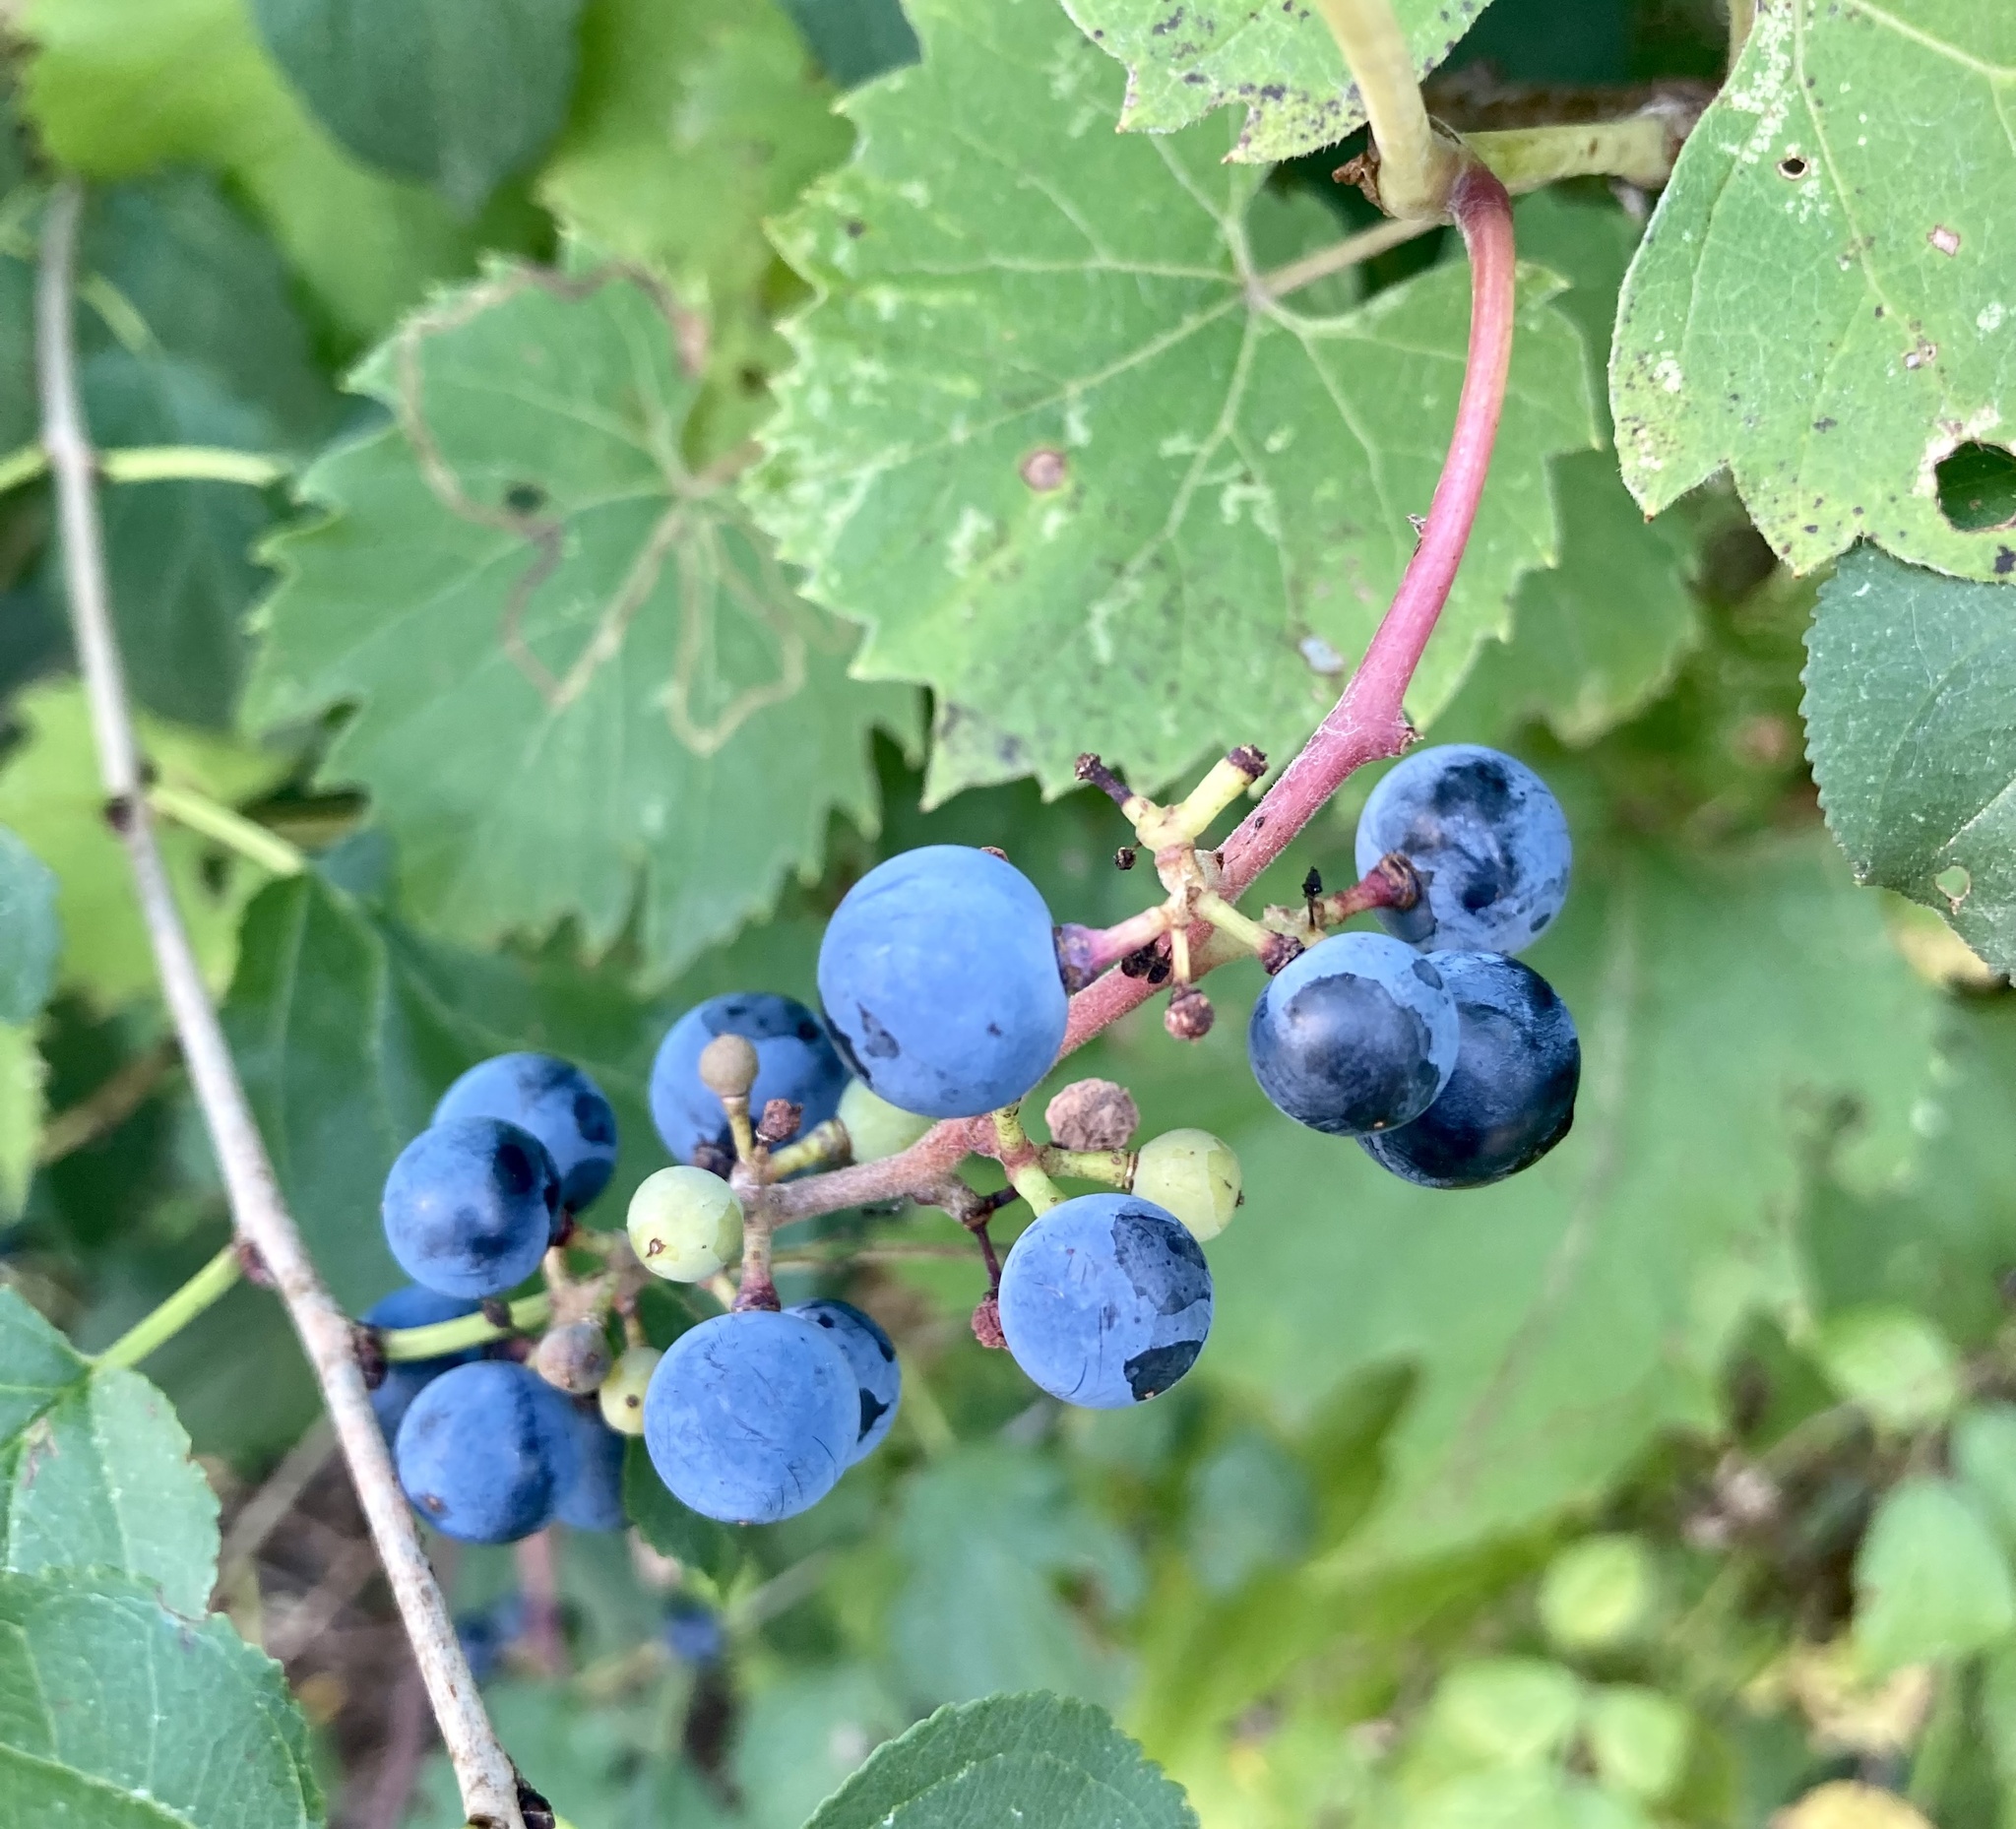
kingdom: Plantae
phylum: Tracheophyta
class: Magnoliopsida
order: Vitales
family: Vitaceae
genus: Vitis
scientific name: Vitis riparia
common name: Frost grape
